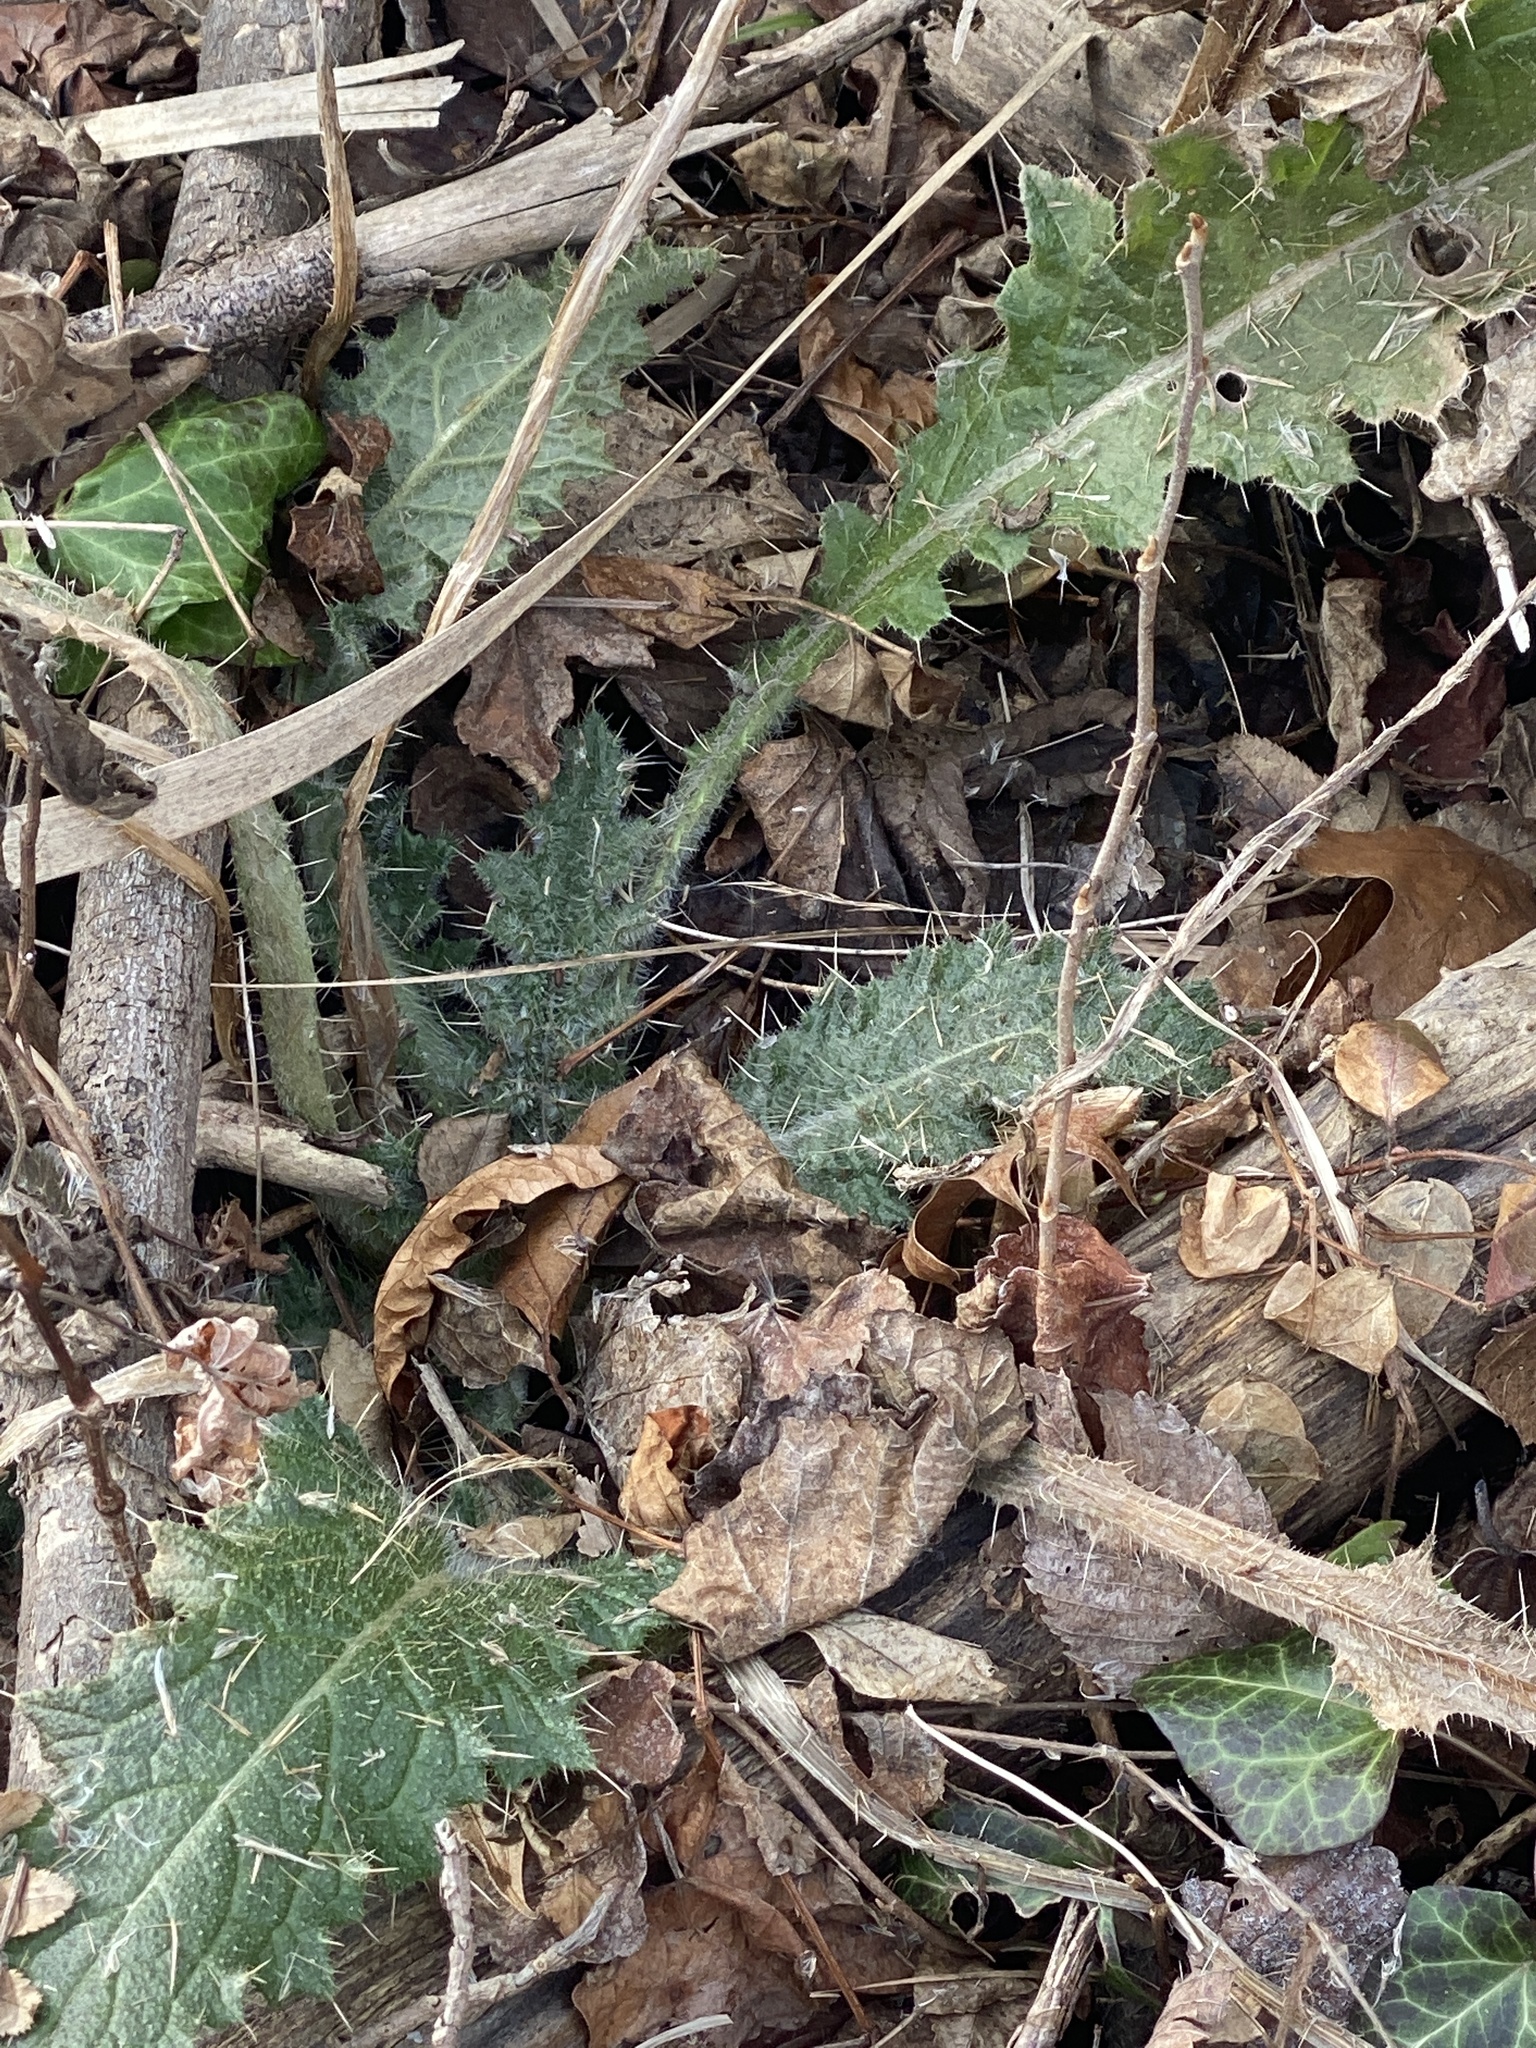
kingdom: Plantae
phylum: Tracheophyta
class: Magnoliopsida
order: Asterales
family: Asteraceae
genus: Cirsium
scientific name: Cirsium vulgare
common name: Bull thistle
